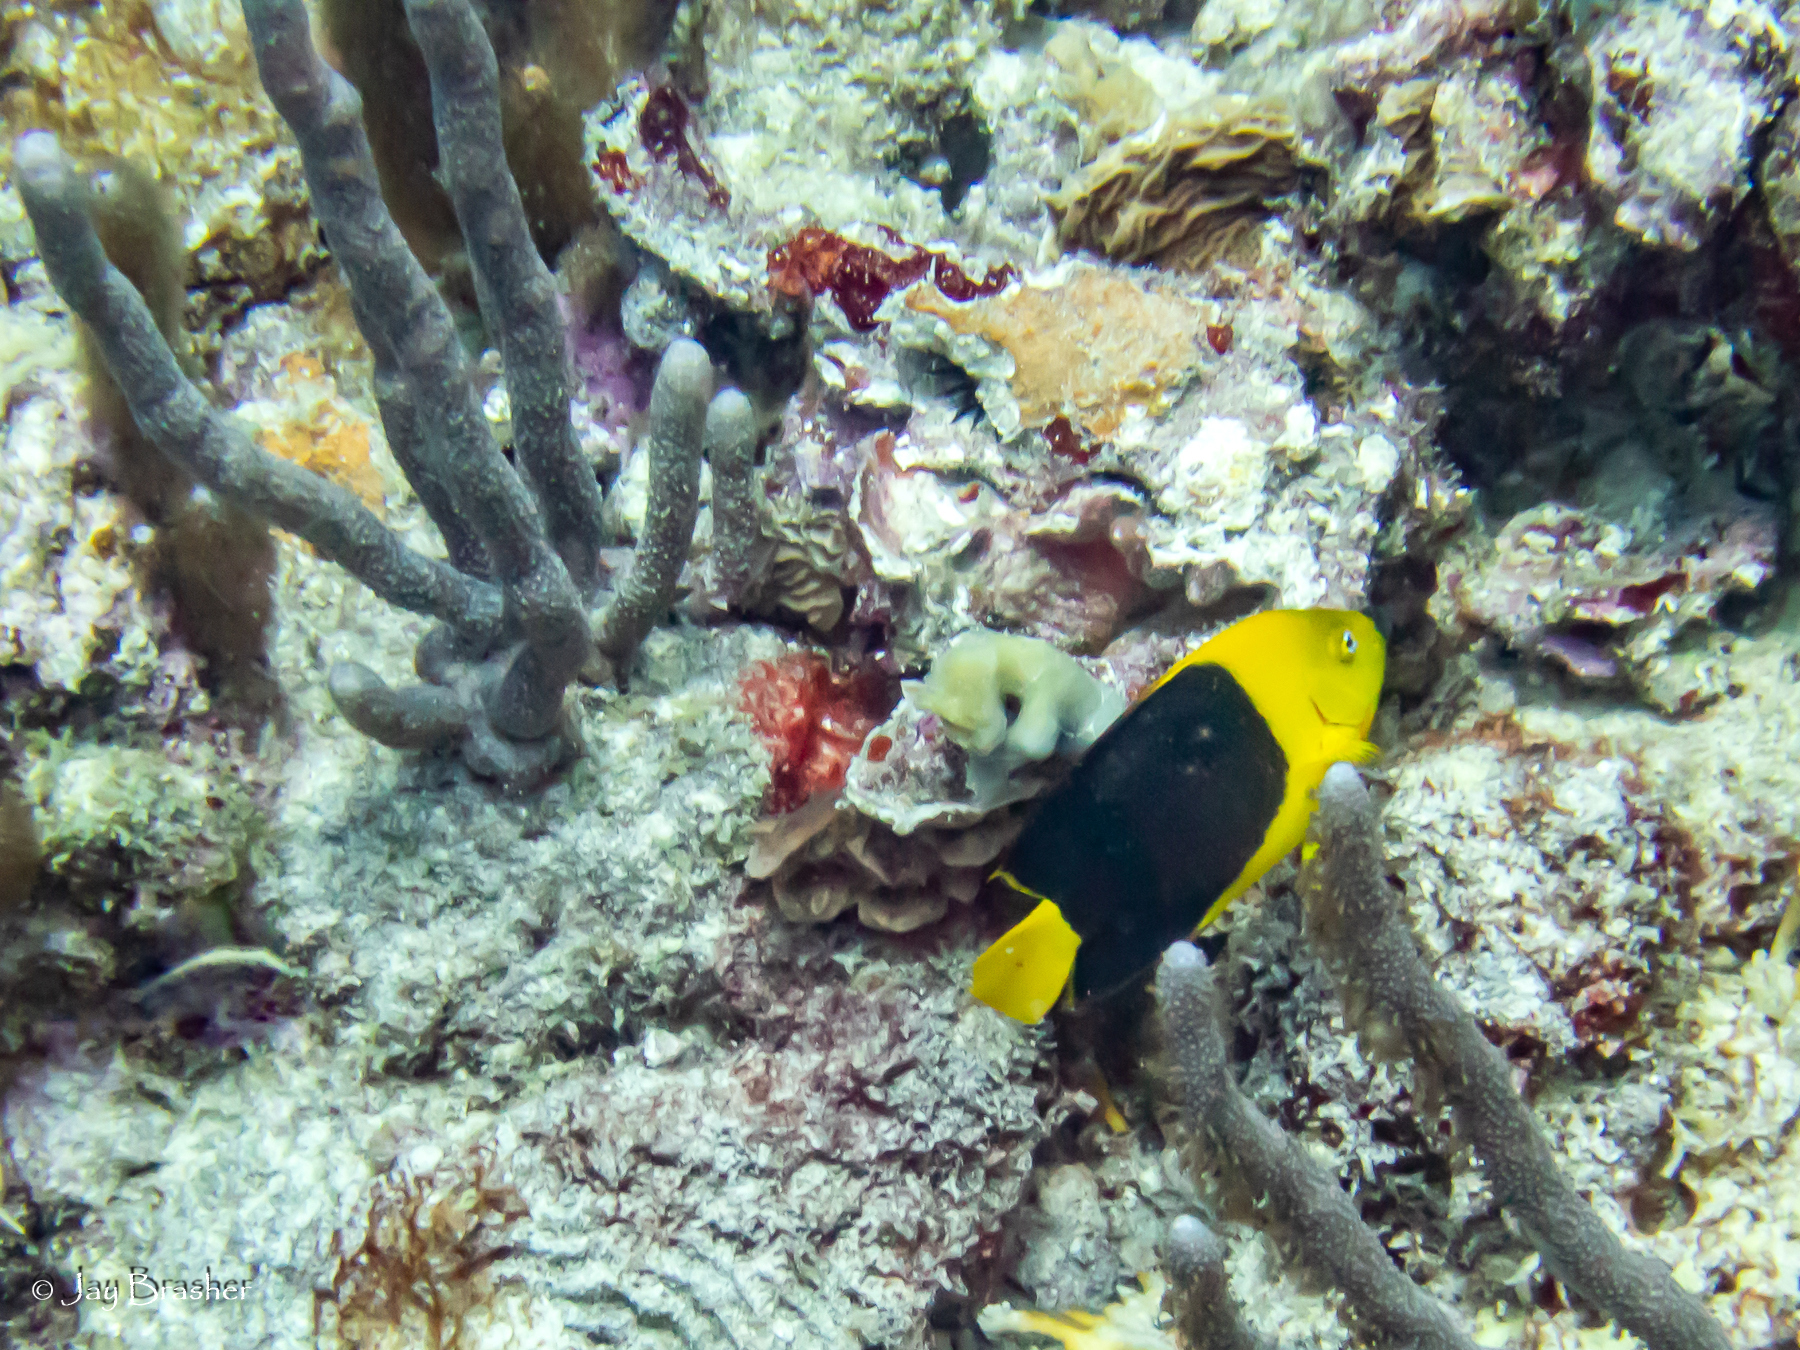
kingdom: Animalia
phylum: Chordata
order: Perciformes
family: Pomacanthidae
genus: Holacanthus
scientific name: Holacanthus tricolor
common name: Rock beauty
